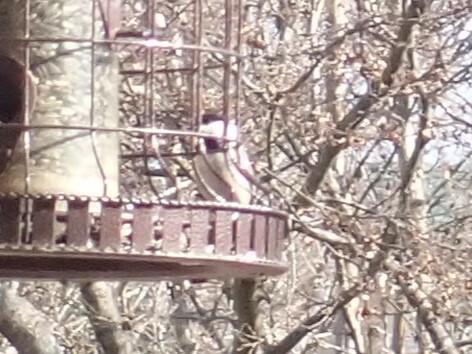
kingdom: Animalia
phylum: Chordata
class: Aves
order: Passeriformes
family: Paridae
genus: Poecile
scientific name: Poecile carolinensis
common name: Carolina chickadee
